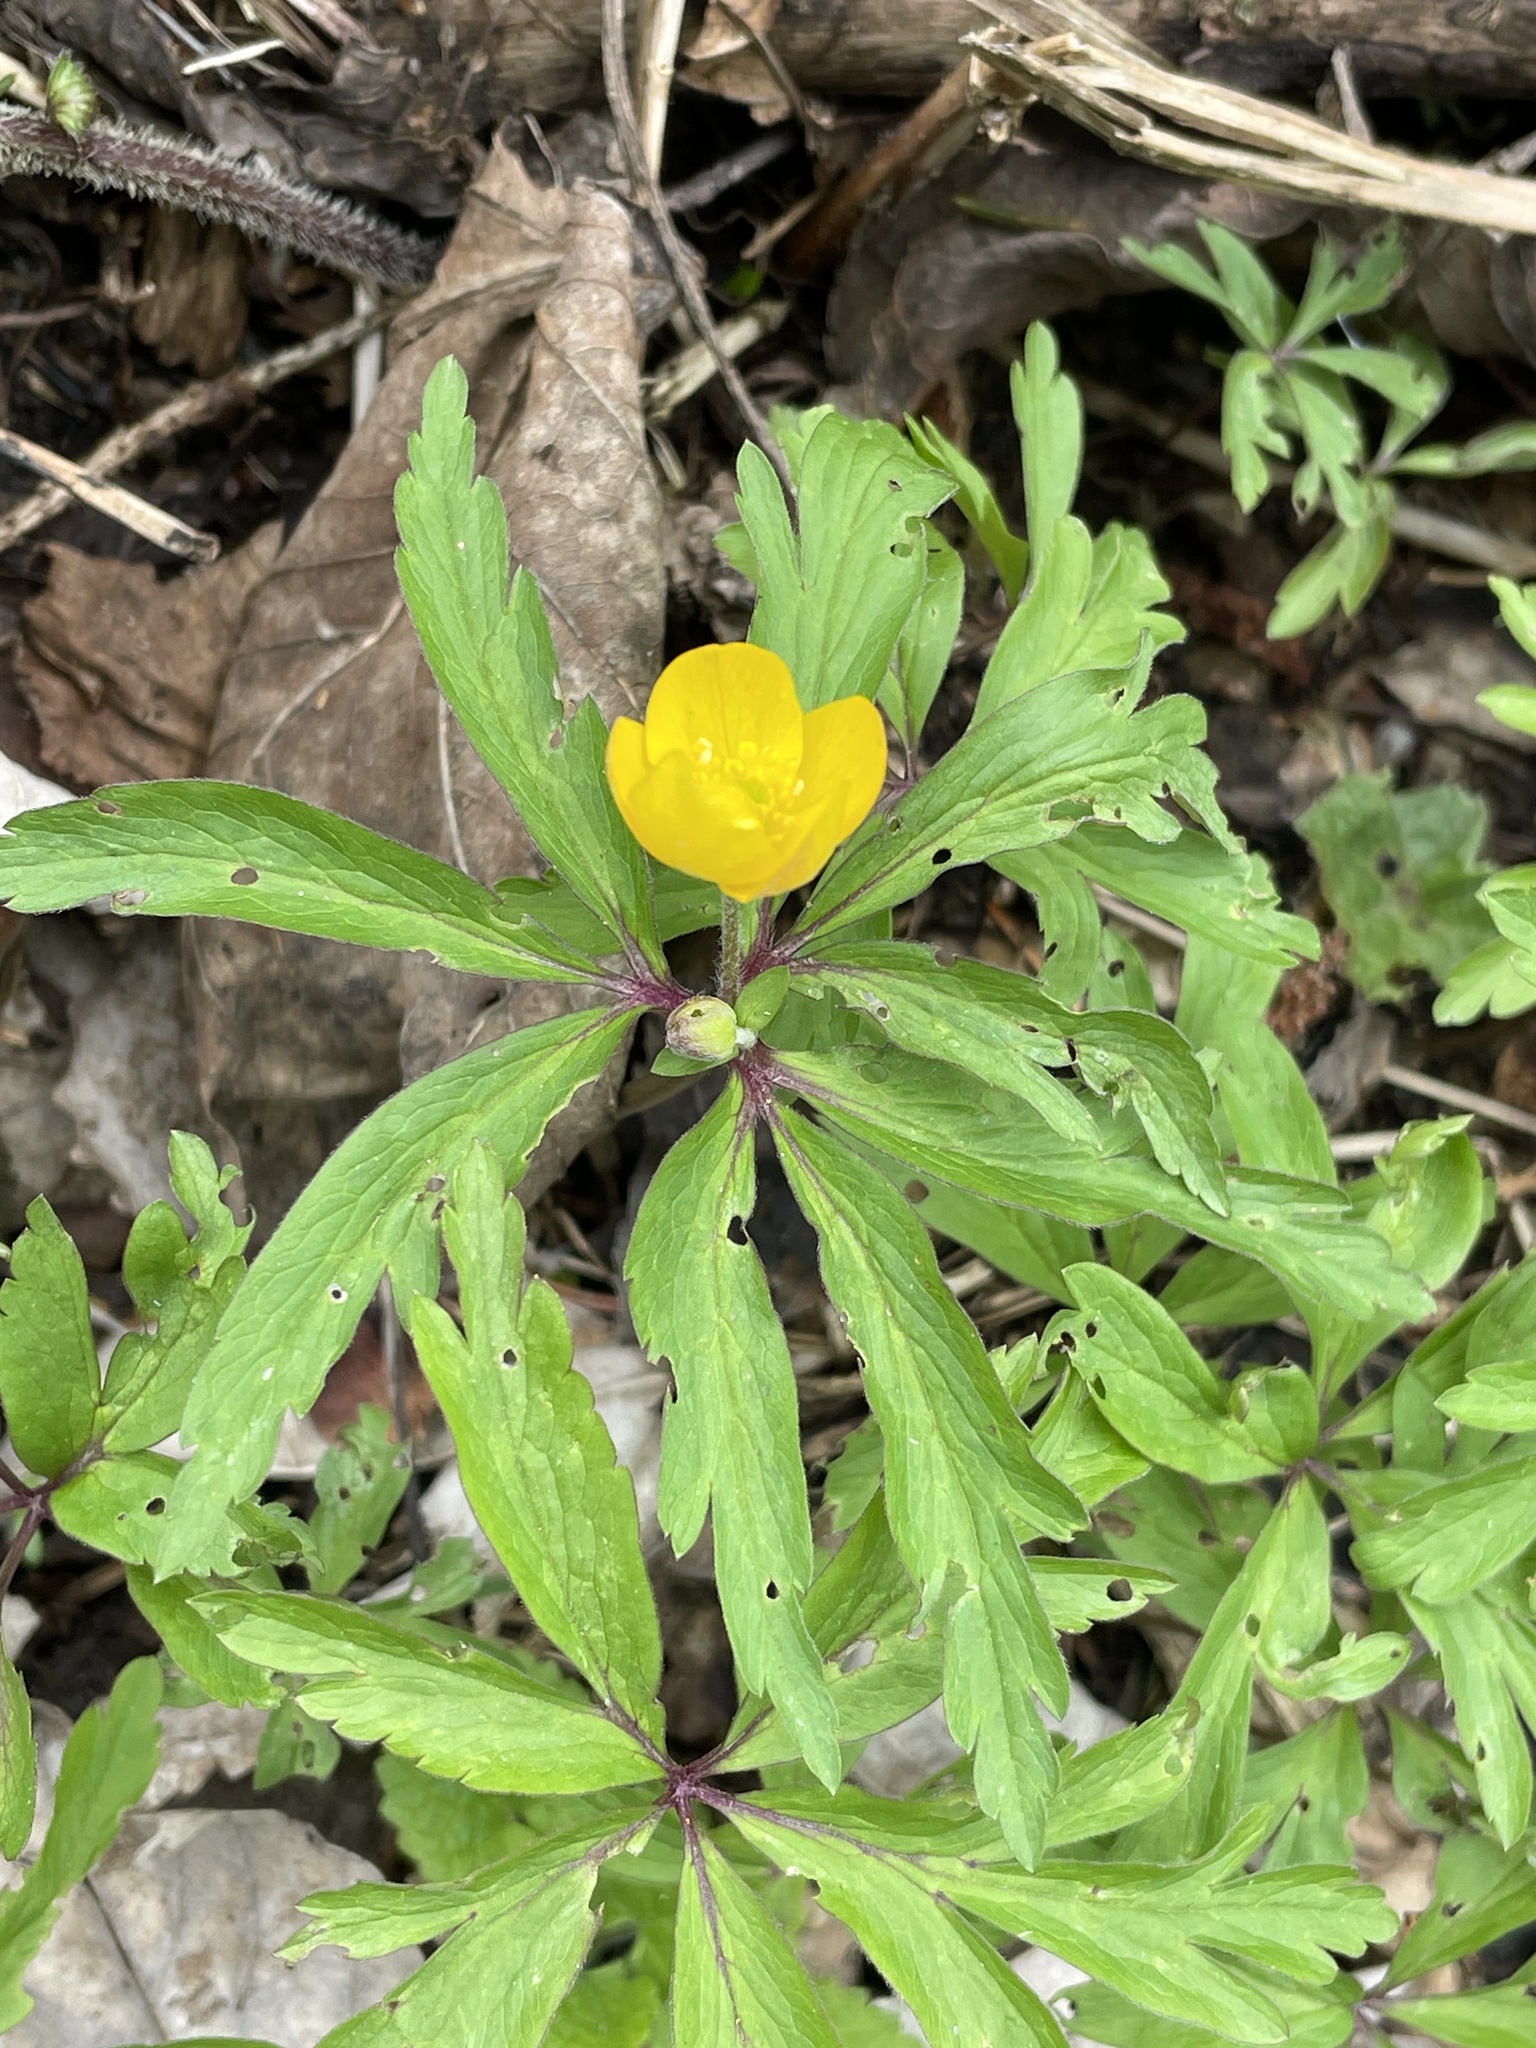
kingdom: Plantae
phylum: Tracheophyta
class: Magnoliopsida
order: Ranunculales
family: Ranunculaceae
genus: Anemone
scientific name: Anemone ranunculoides
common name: Yellow anemone
